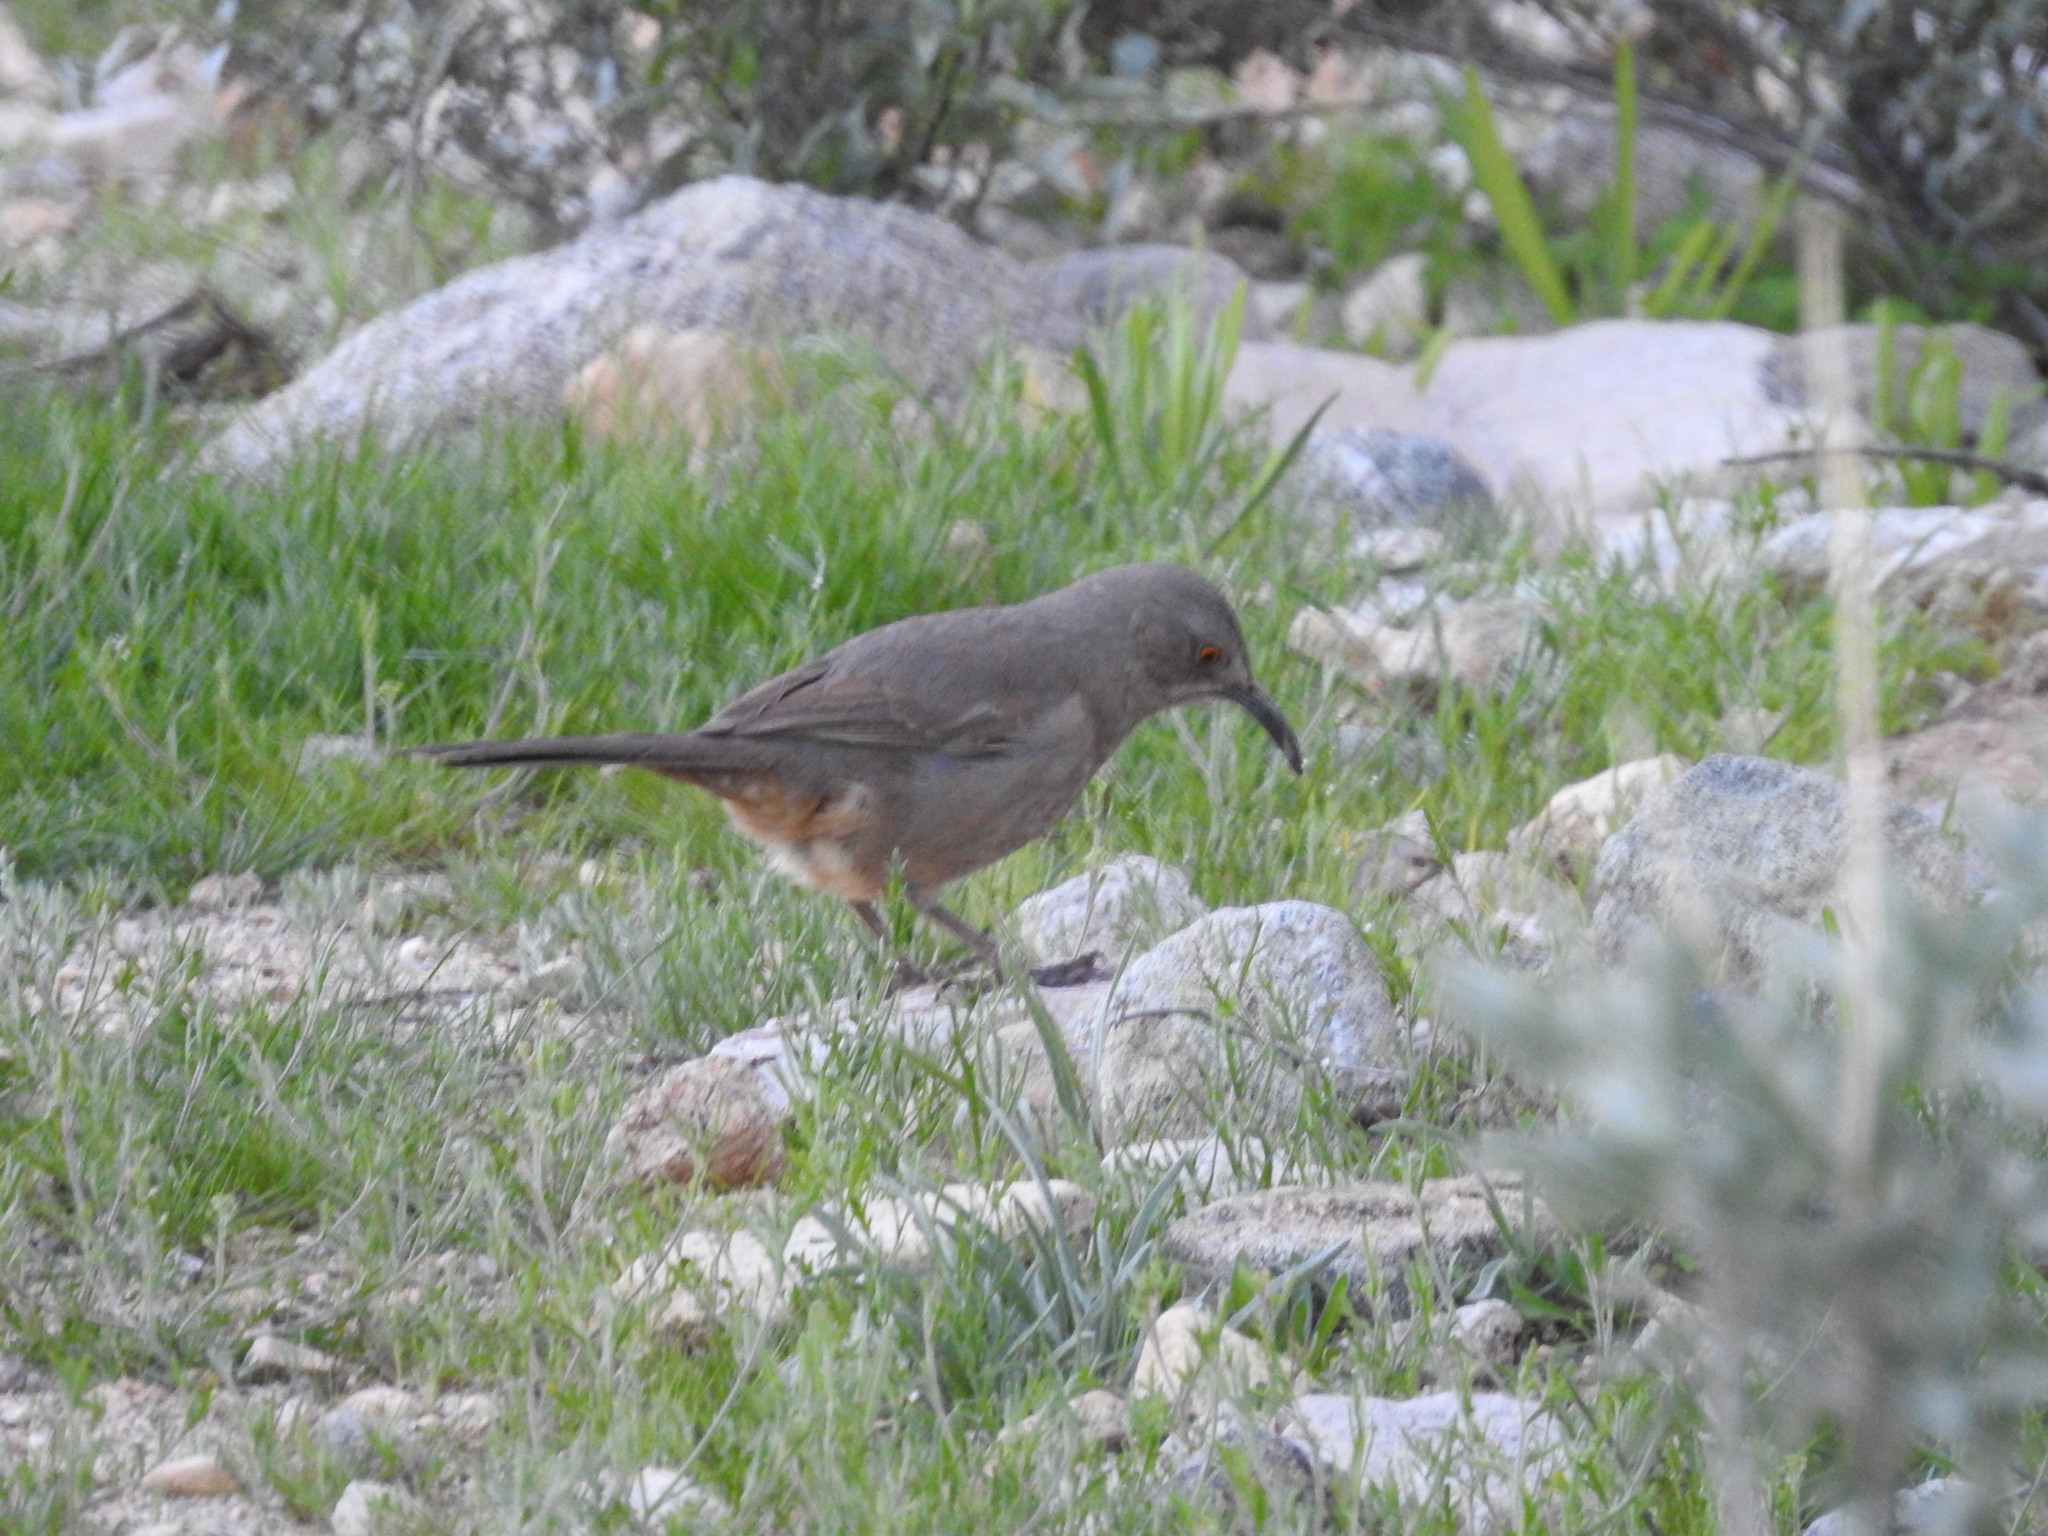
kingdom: Animalia
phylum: Chordata
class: Aves
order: Passeriformes
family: Mimidae
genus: Toxostoma
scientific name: Toxostoma curvirostre
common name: Curve-billed thrasher
